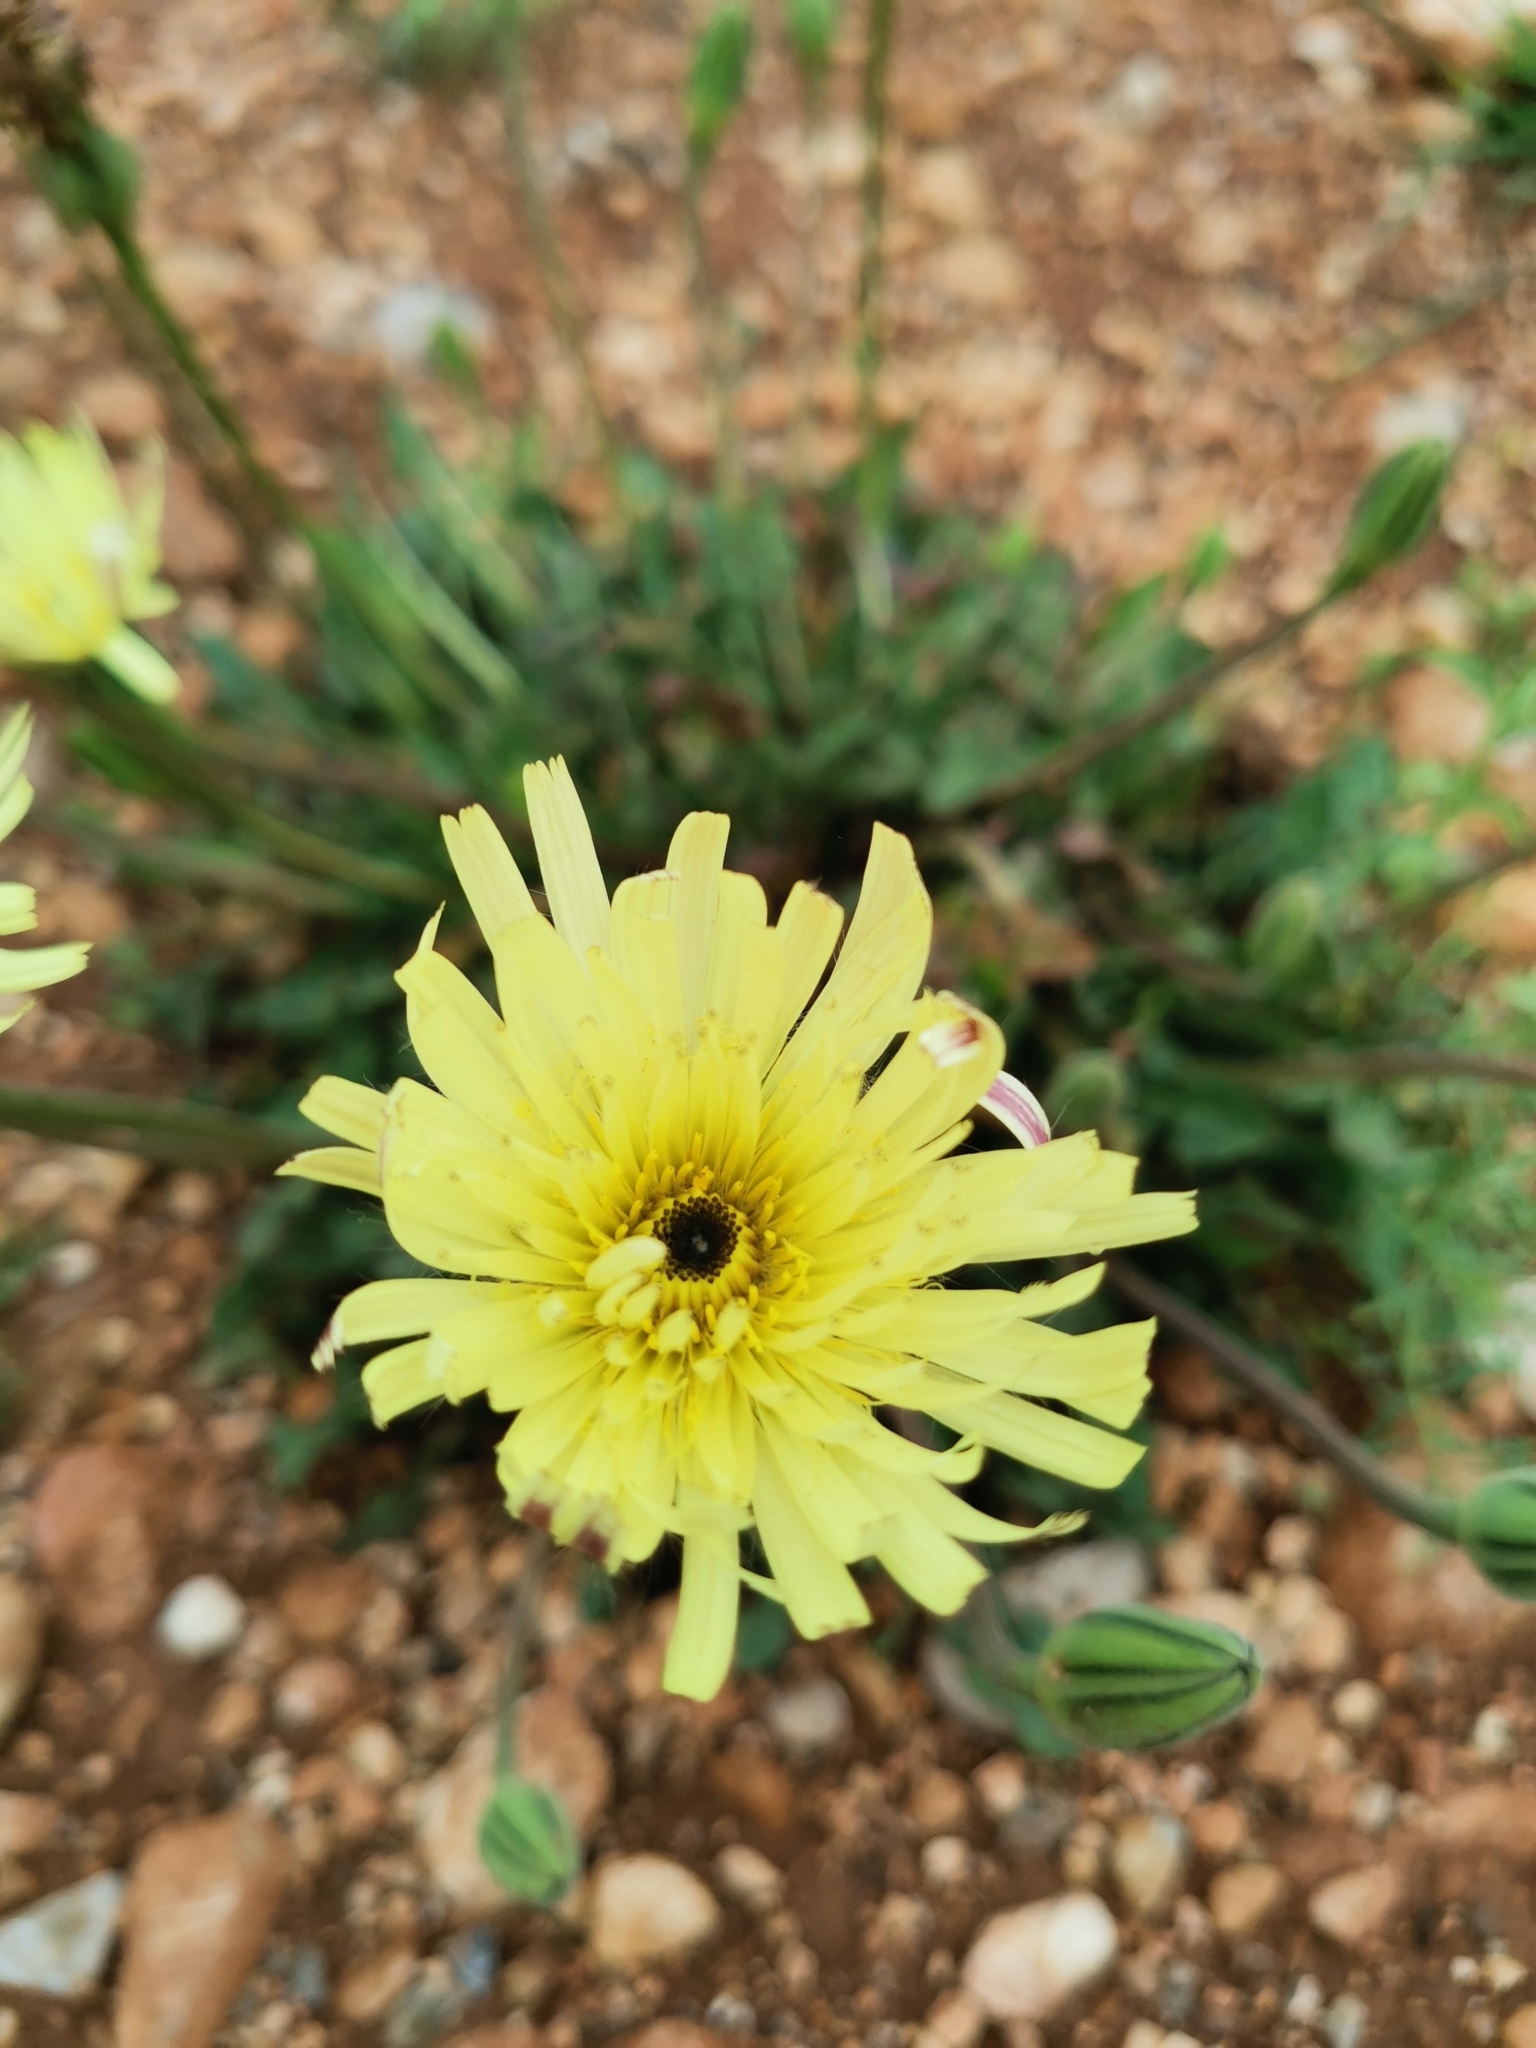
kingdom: Plantae
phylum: Tracheophyta
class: Magnoliopsida
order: Asterales
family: Asteraceae
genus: Urospermum
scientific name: Urospermum dalechampii
